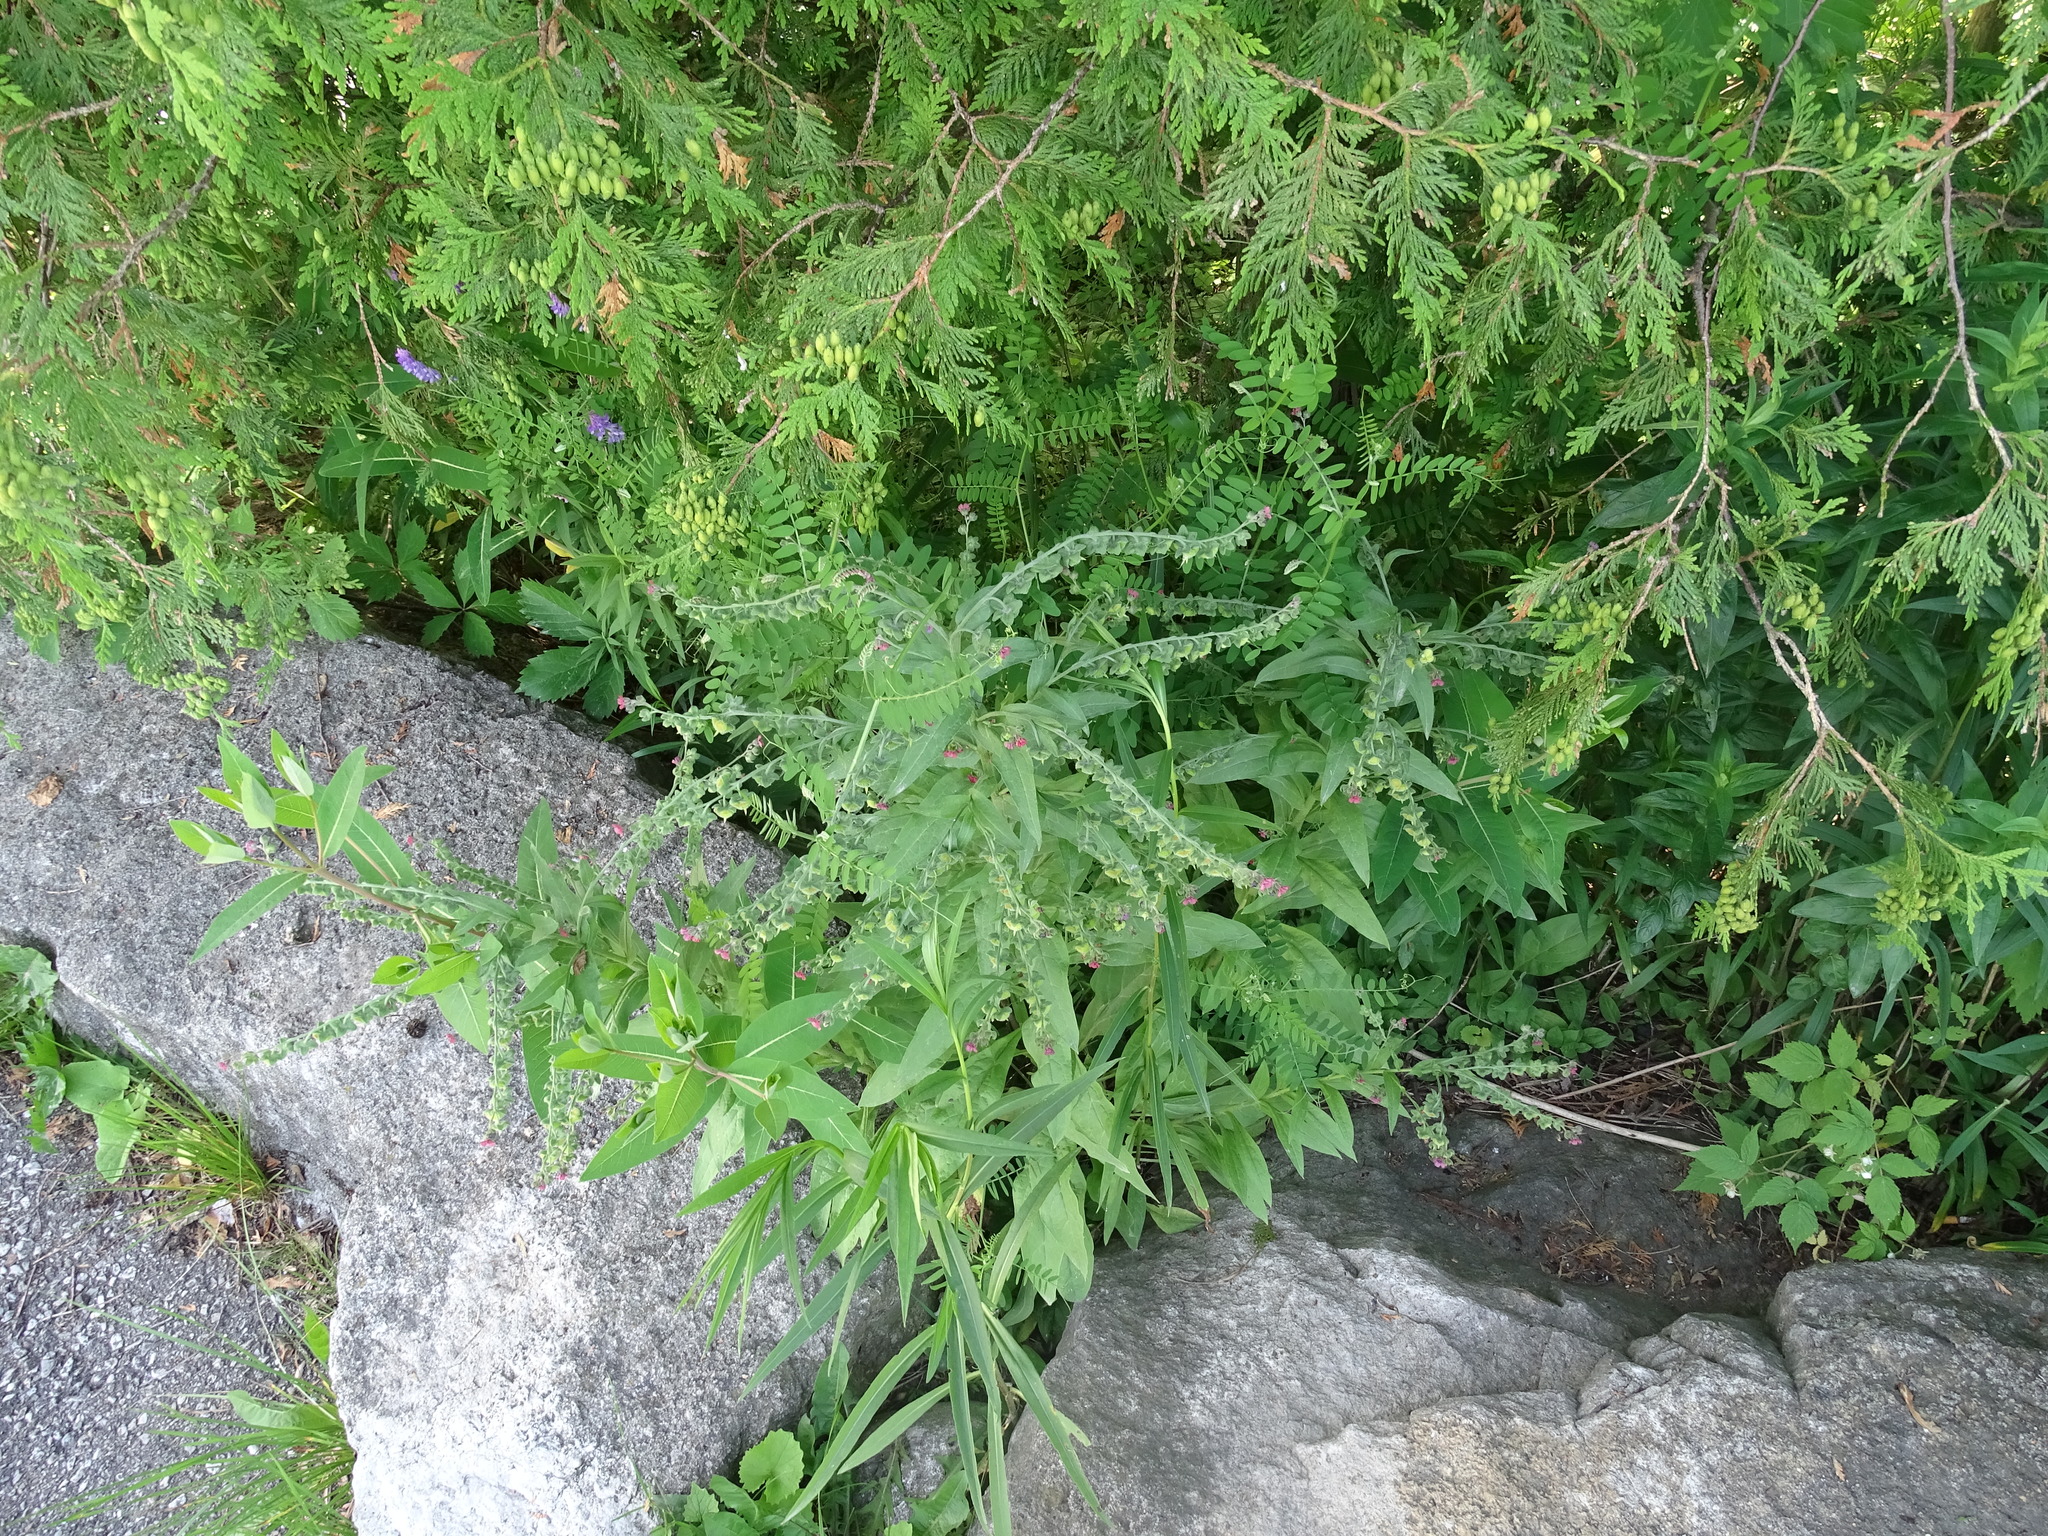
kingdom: Plantae
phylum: Tracheophyta
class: Magnoliopsida
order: Boraginales
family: Boraginaceae
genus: Cynoglossum
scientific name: Cynoglossum officinale
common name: Hound's-tongue
